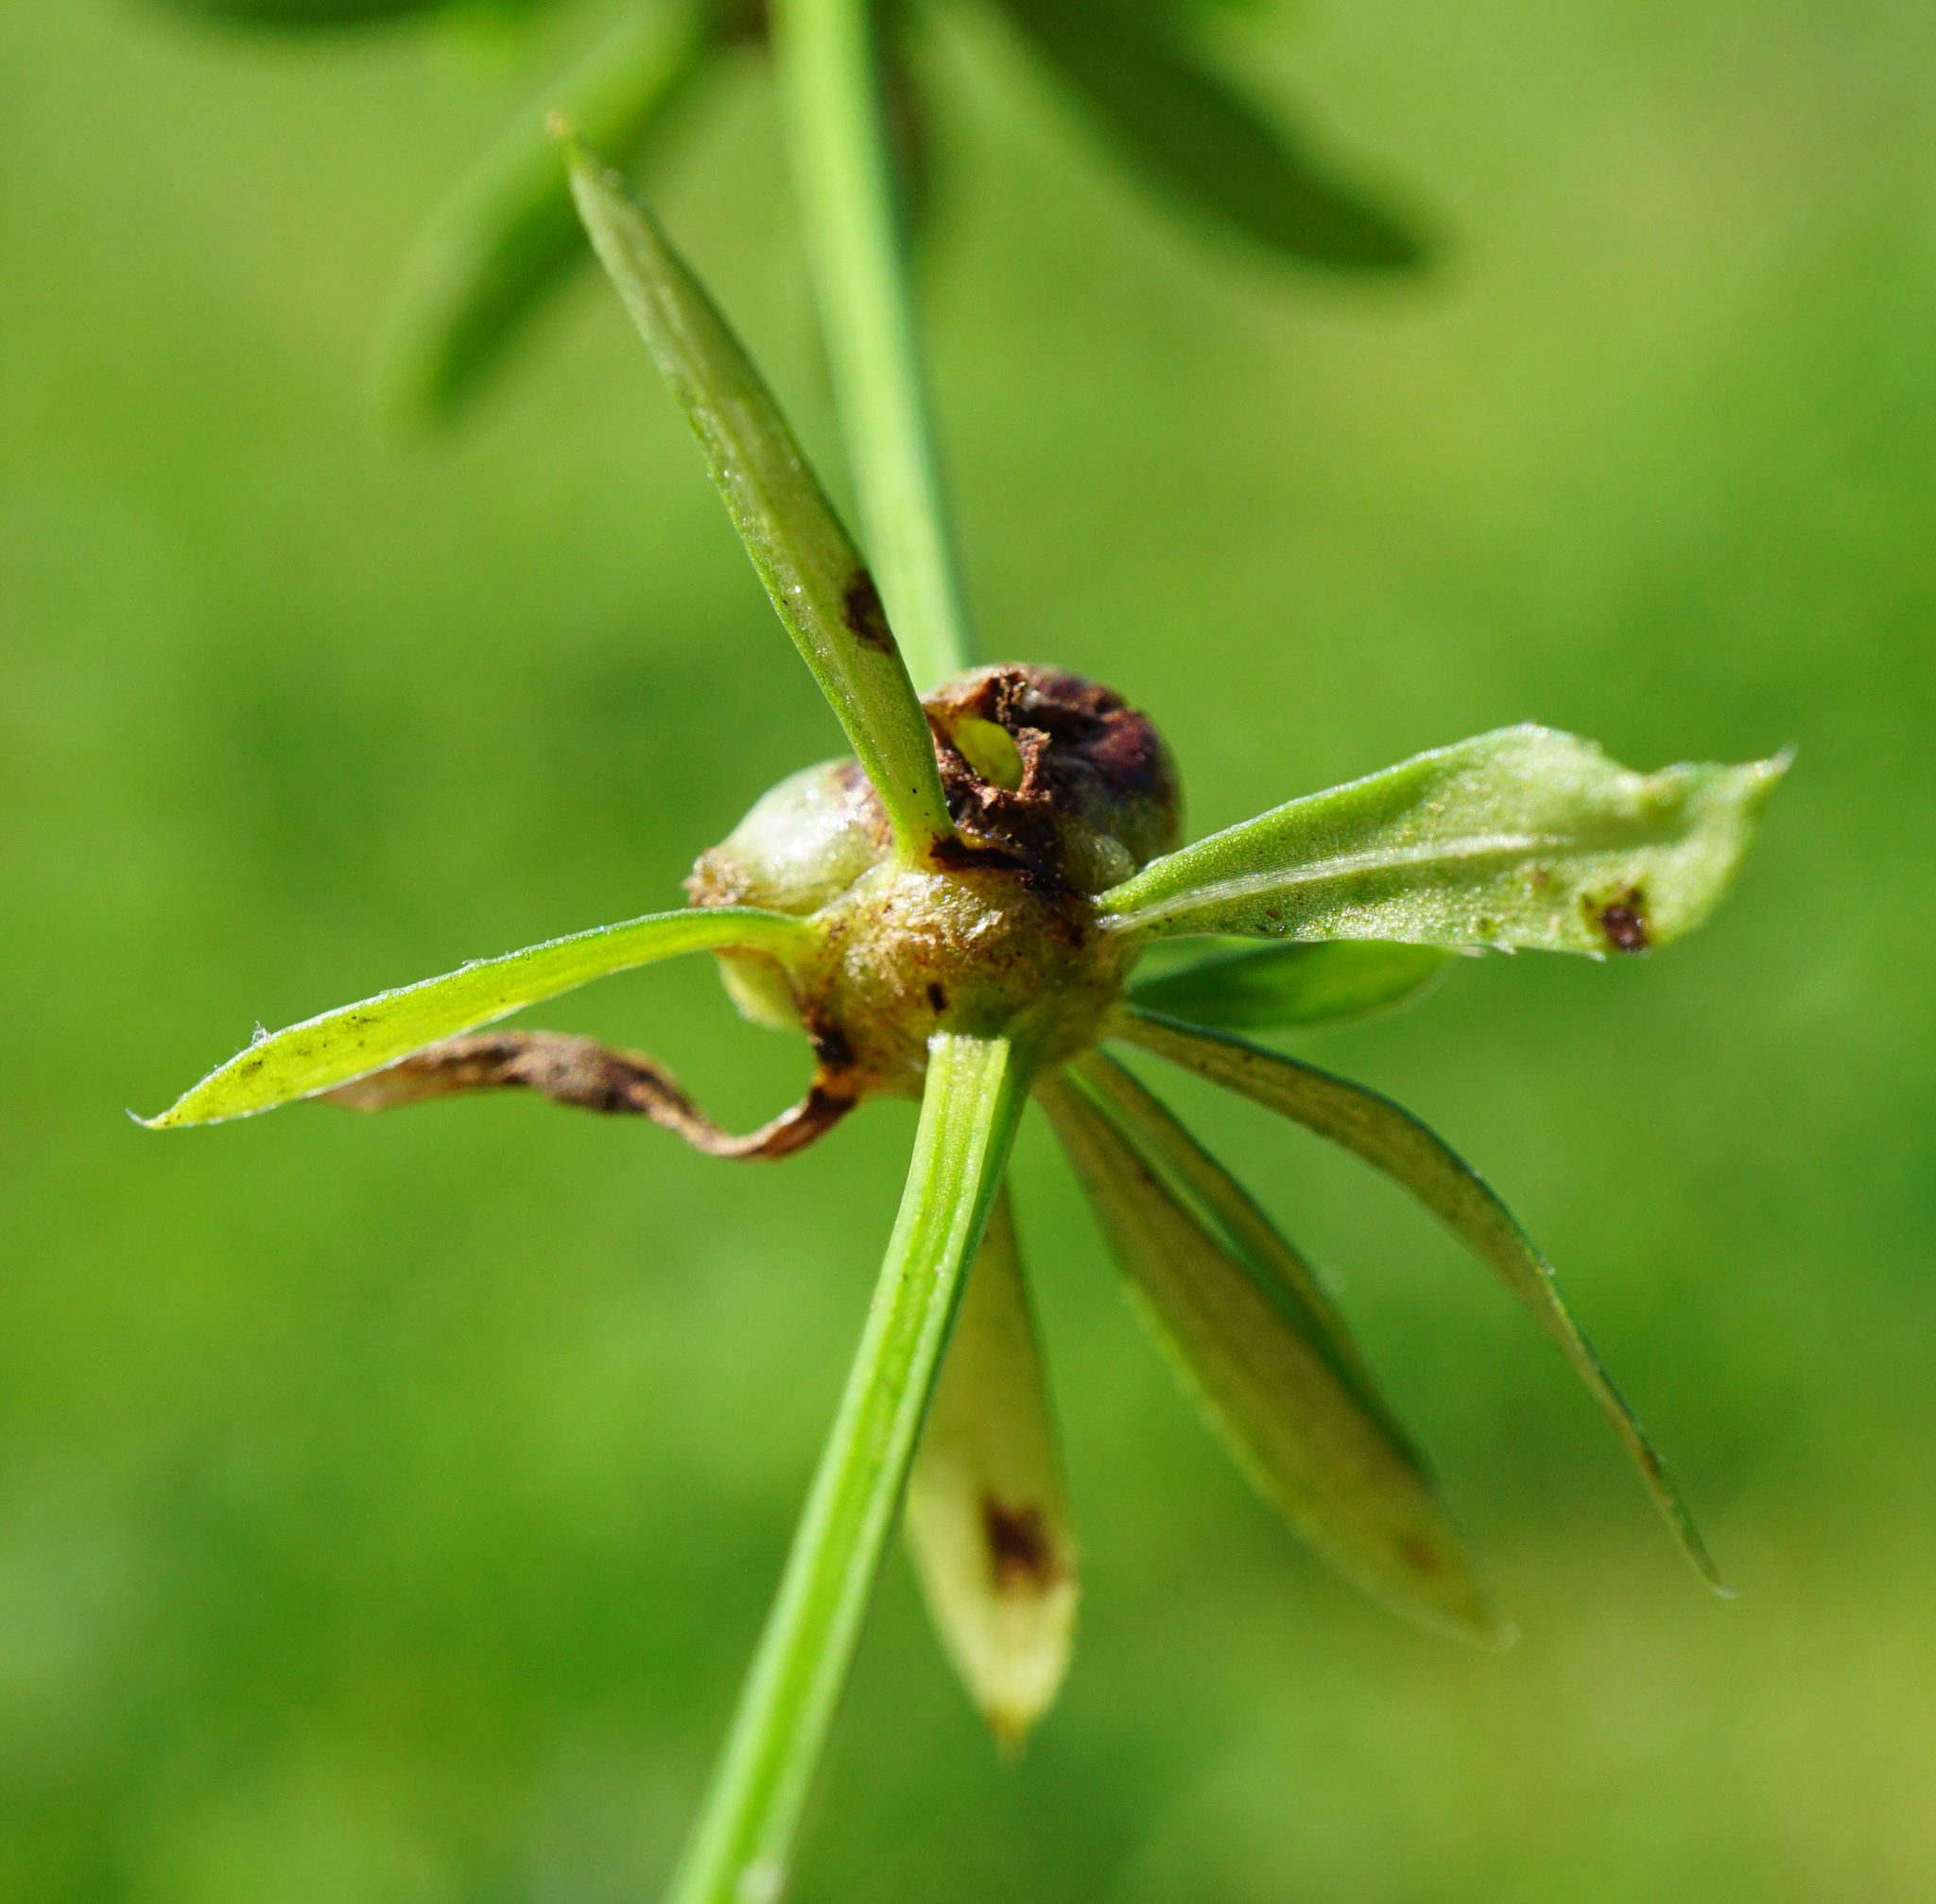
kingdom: Animalia
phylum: Arthropoda
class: Insecta
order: Diptera
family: Cecidomyiidae
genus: Geocrypta
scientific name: Geocrypta galii
